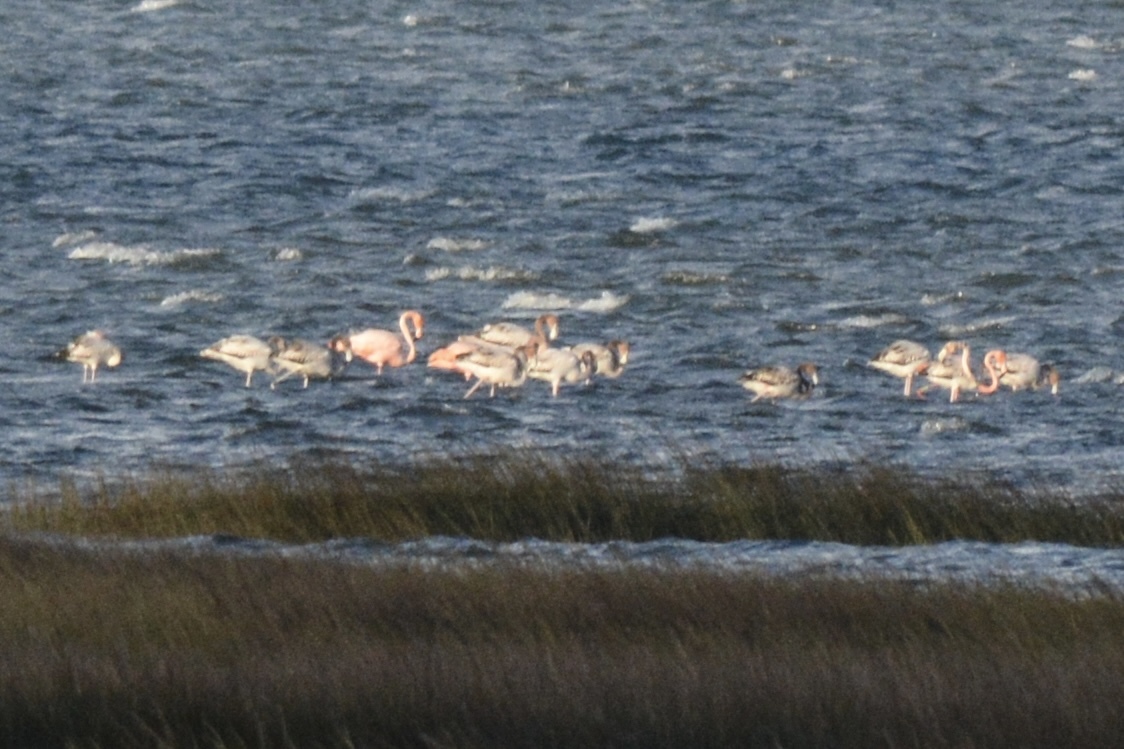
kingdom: Animalia
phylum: Chordata
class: Aves
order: Phoenicopteriformes
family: Phoenicopteridae
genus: Phoenicopterus
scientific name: Phoenicopterus ruber
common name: American flamingo
